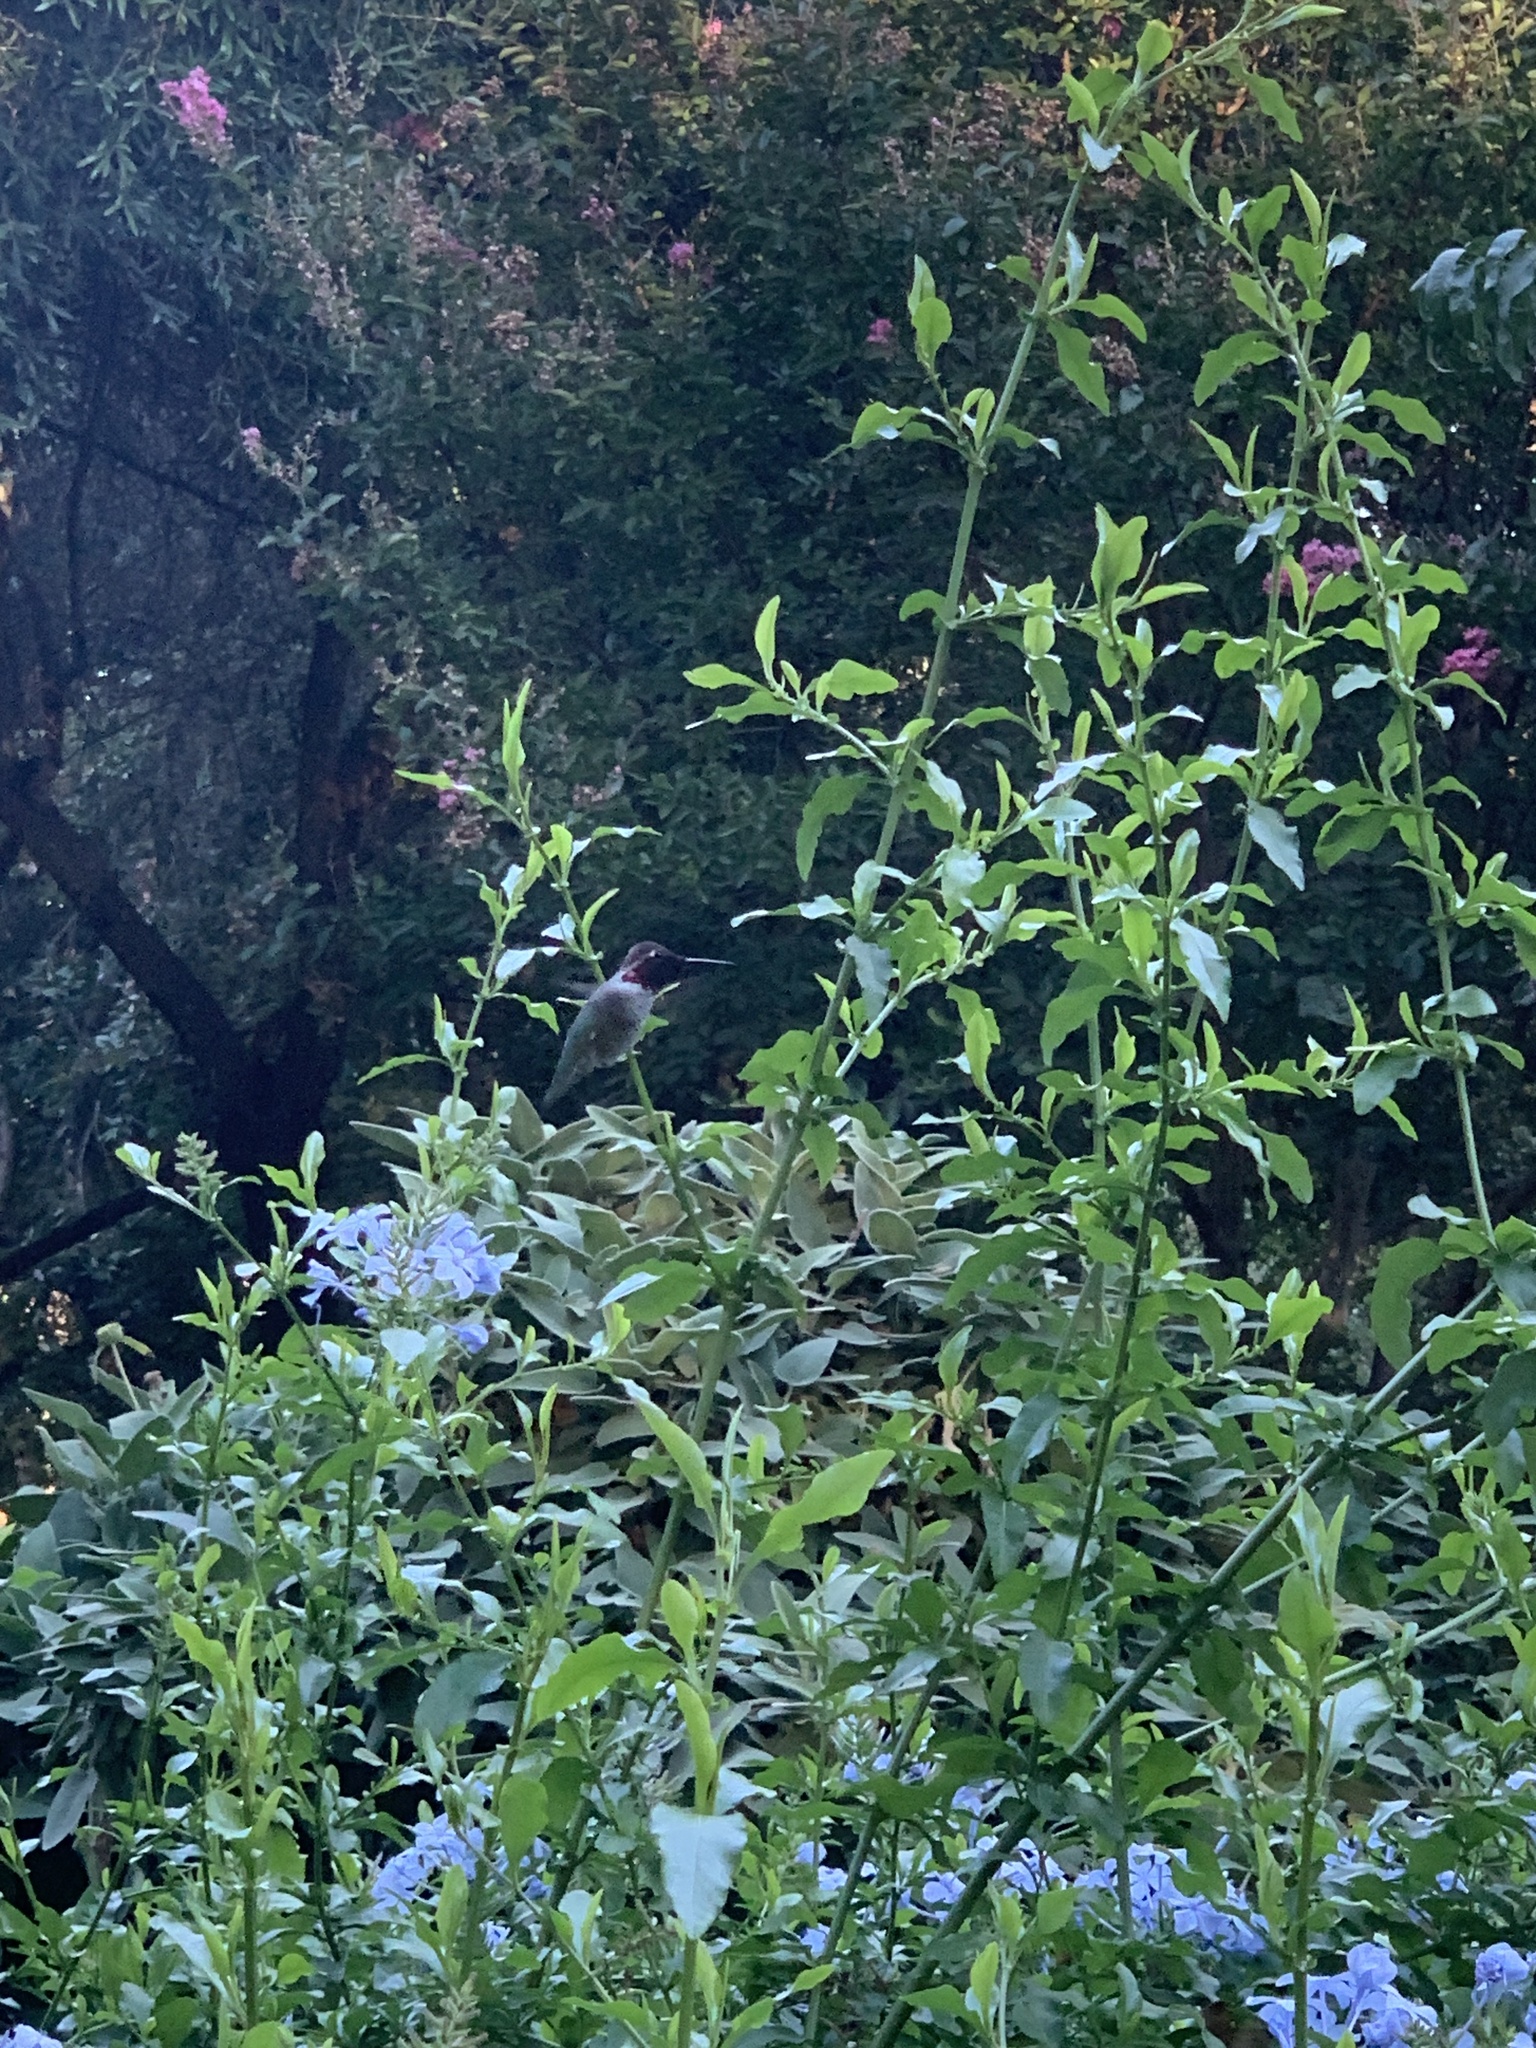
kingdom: Animalia
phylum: Chordata
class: Aves
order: Apodiformes
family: Trochilidae
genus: Calypte
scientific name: Calypte anna
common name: Anna's hummingbird
